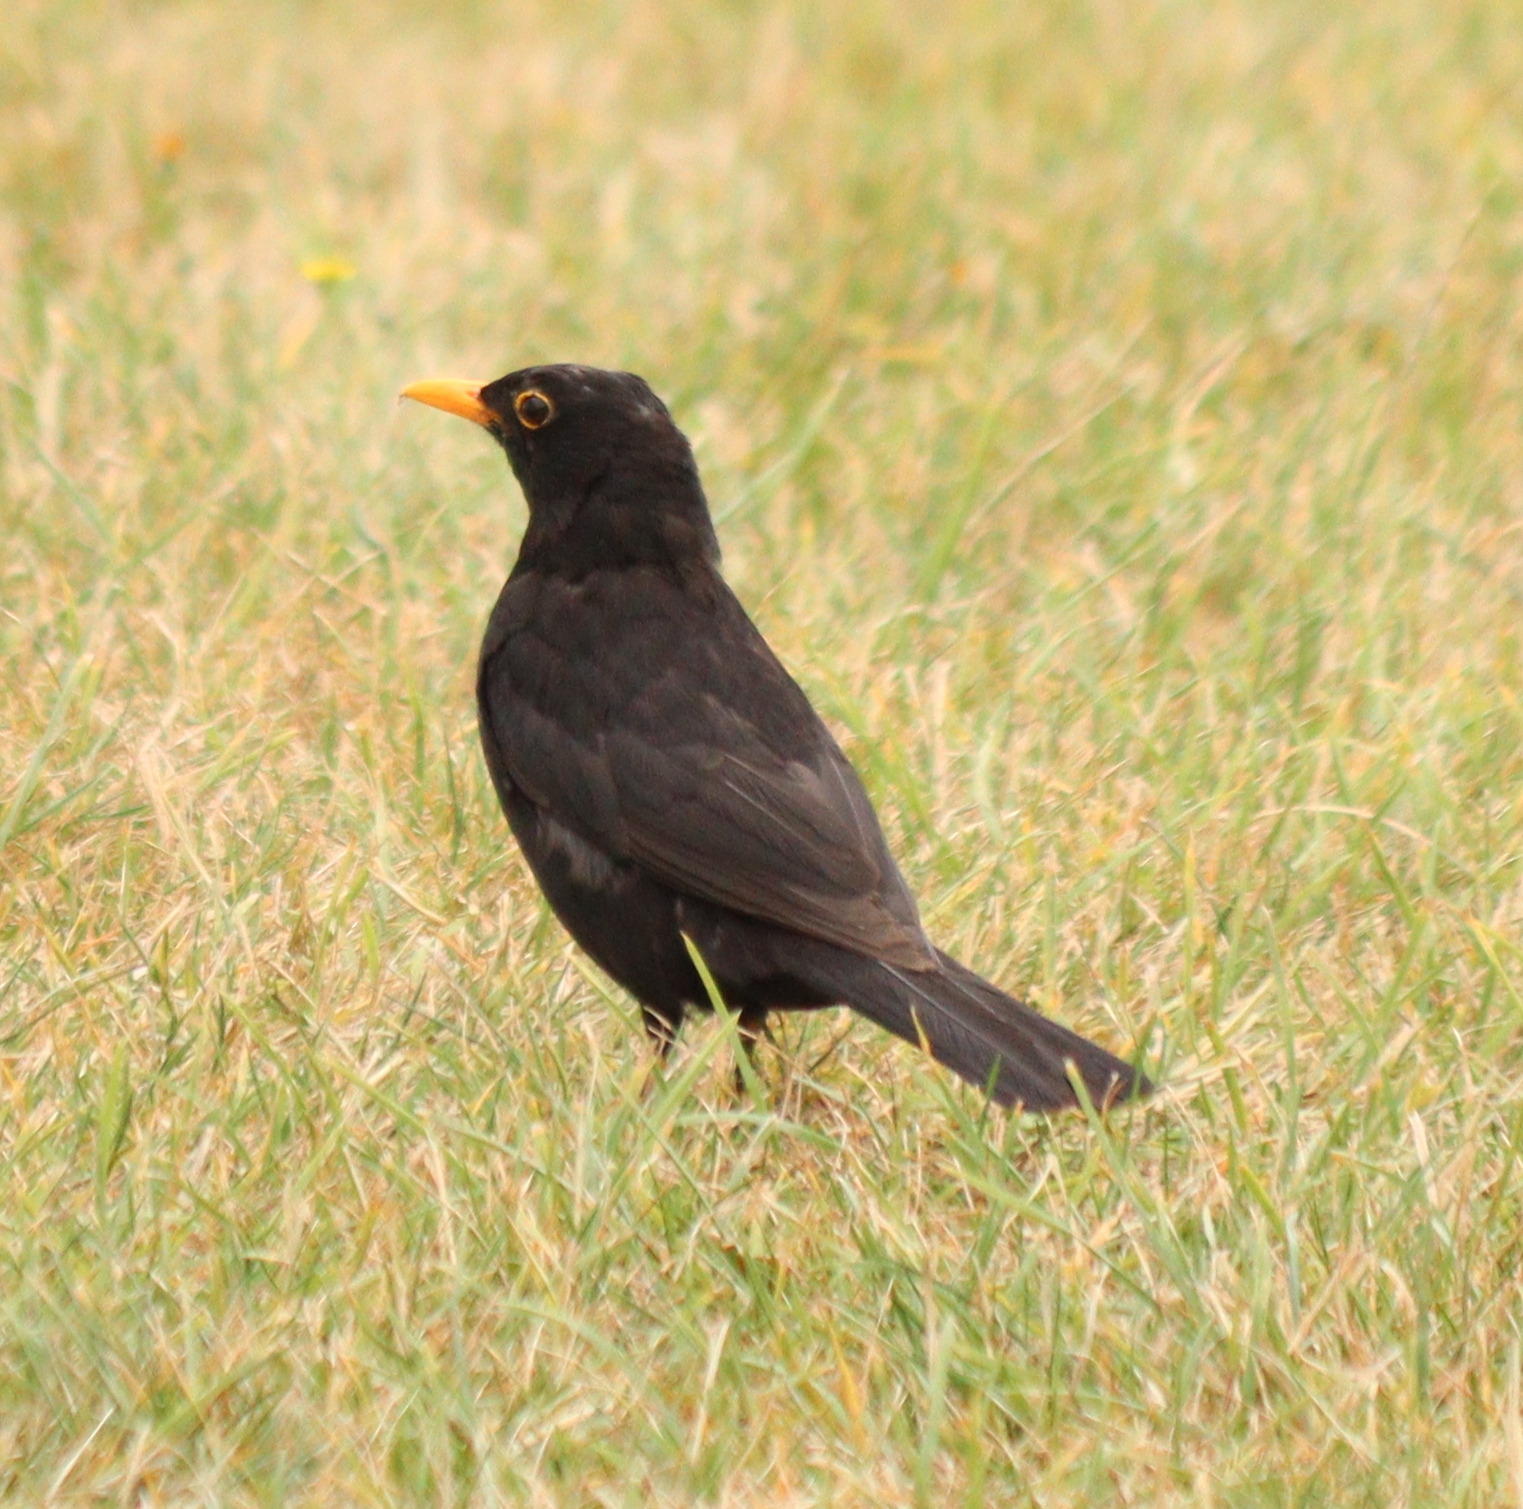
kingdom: Animalia
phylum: Chordata
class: Aves
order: Passeriformes
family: Turdidae
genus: Turdus
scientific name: Turdus merula
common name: Common blackbird
